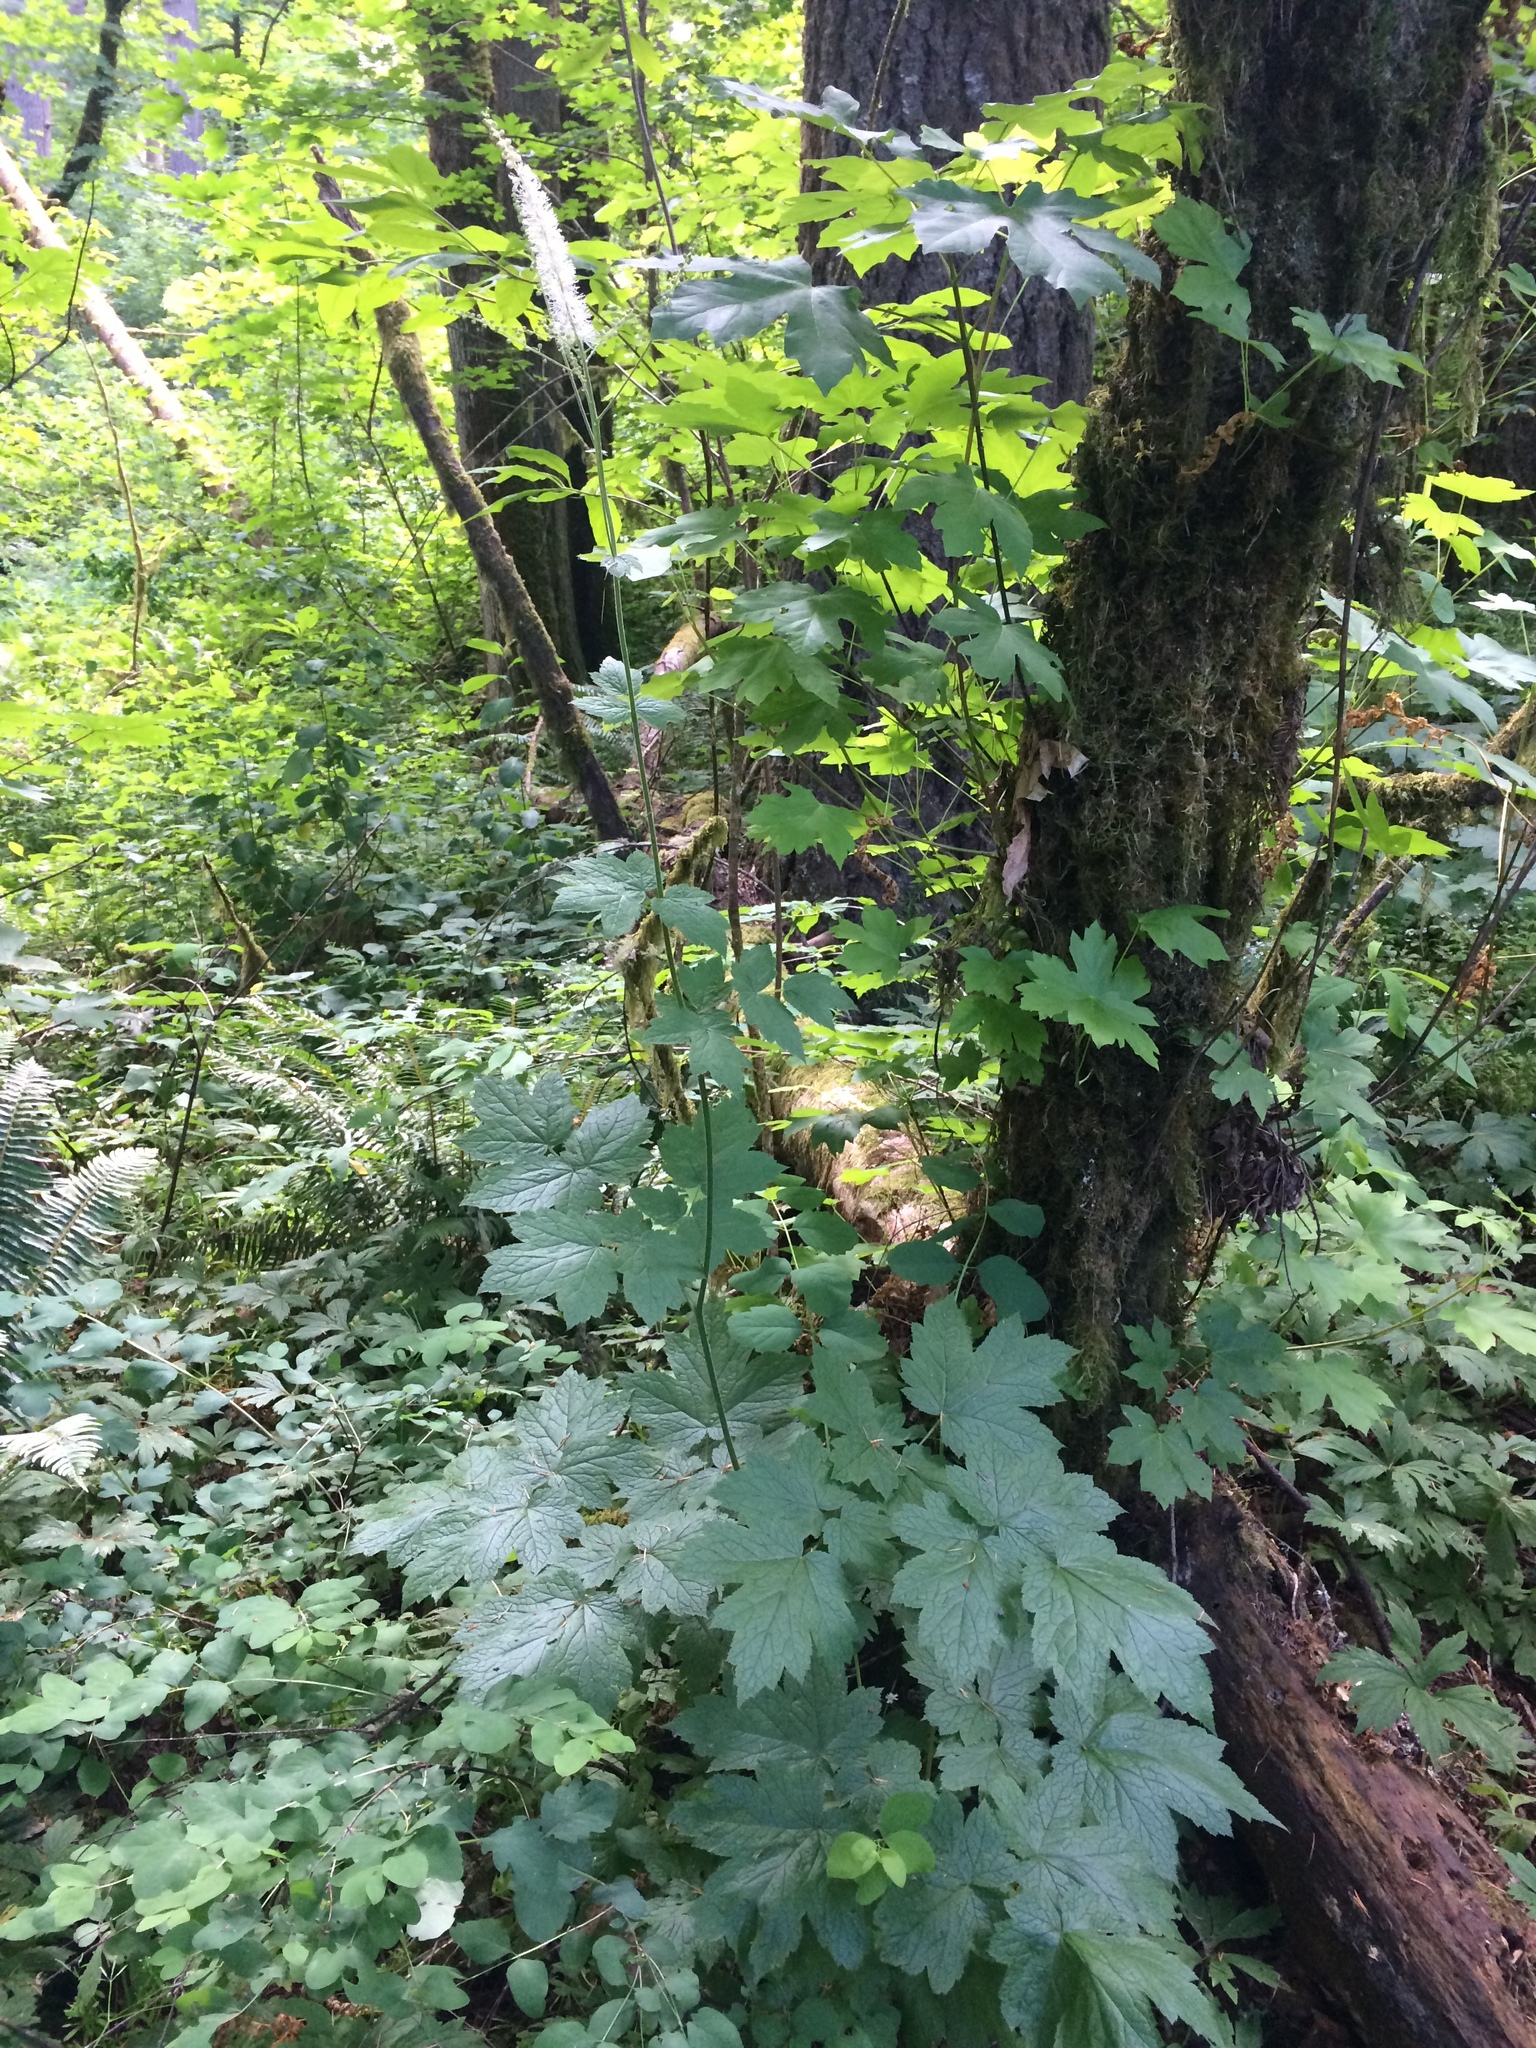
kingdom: Plantae
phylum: Tracheophyta
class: Magnoliopsida
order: Ranunculales
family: Ranunculaceae
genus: Actaea
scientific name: Actaea elata
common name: Tall bugbane
